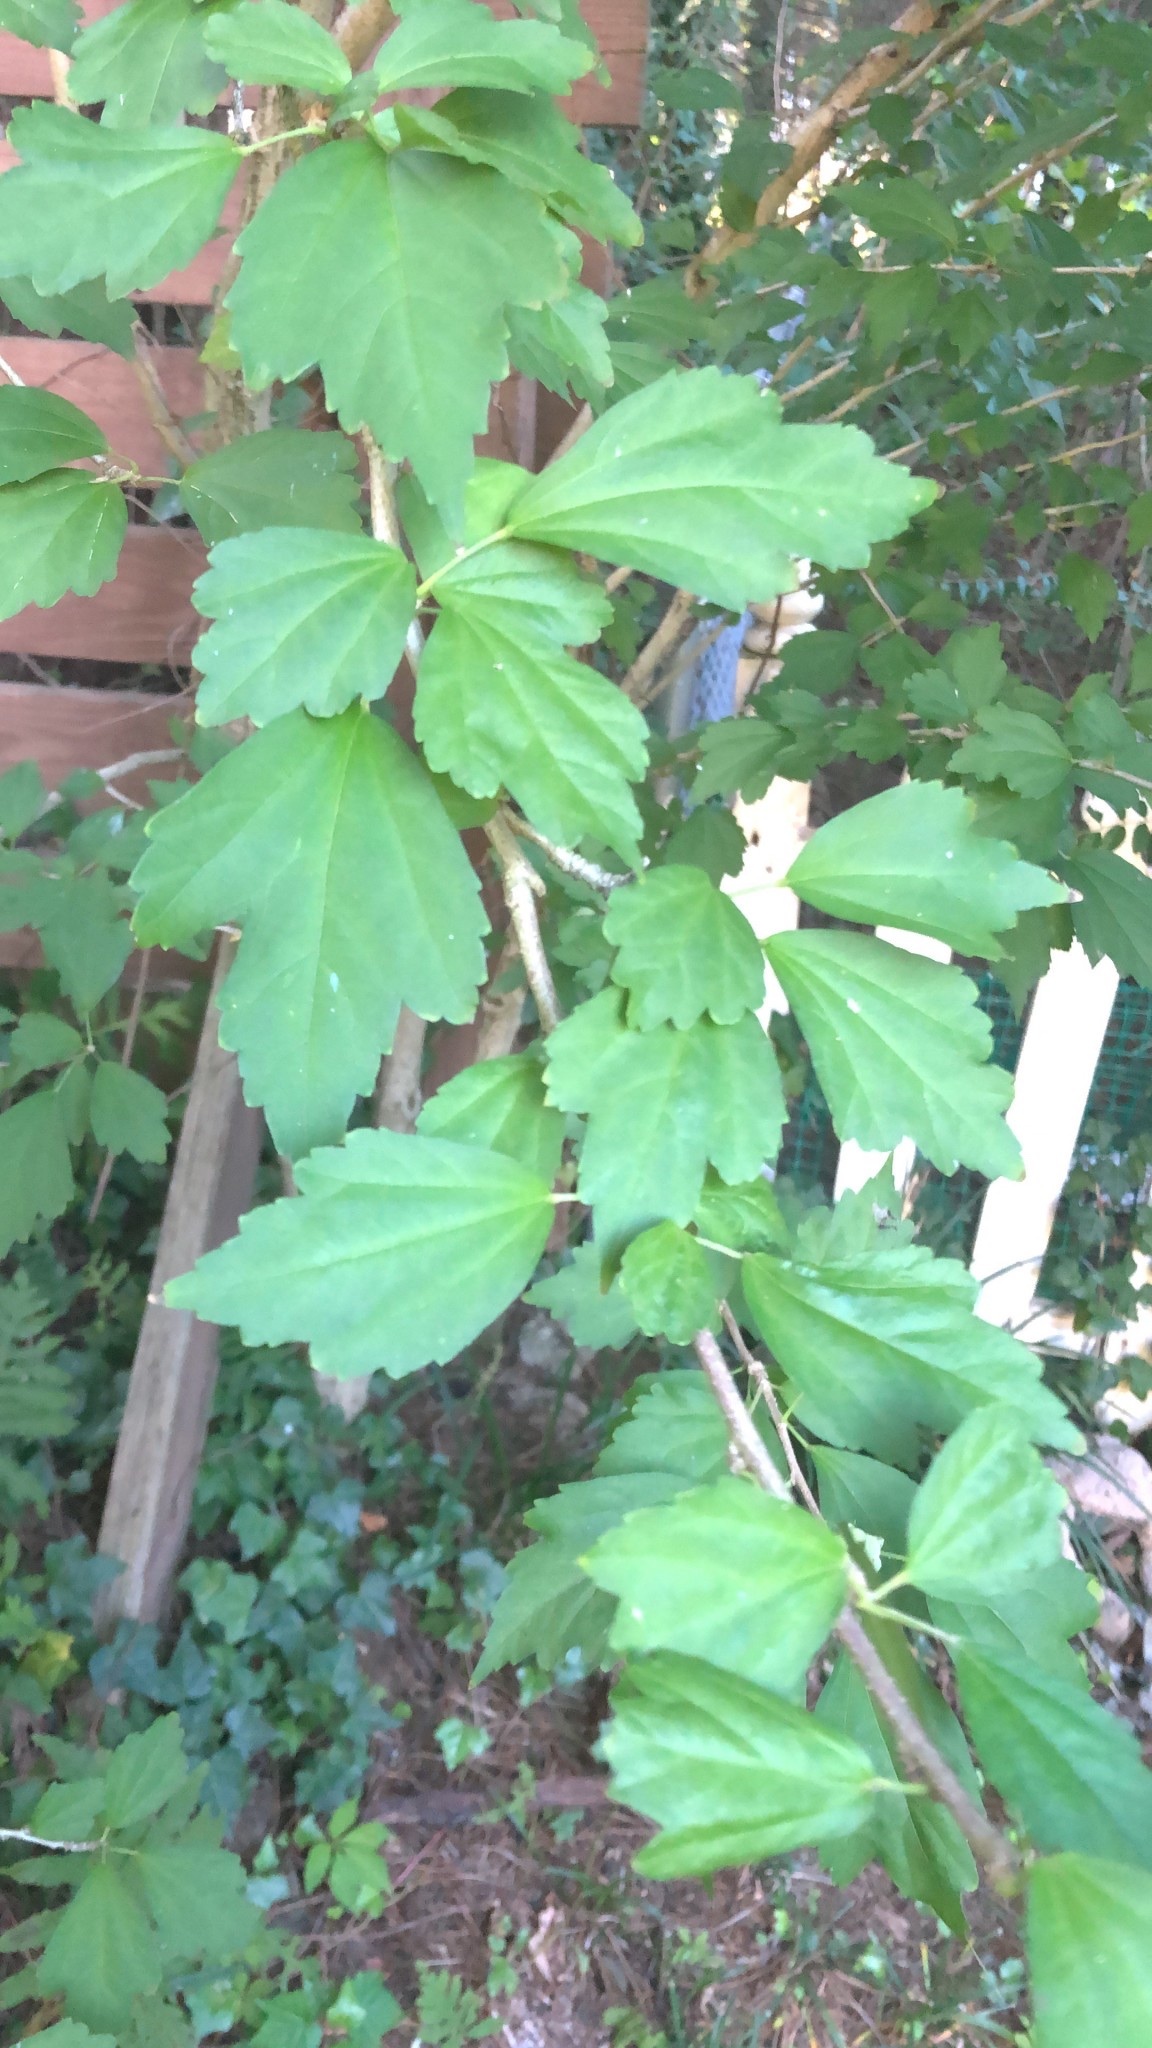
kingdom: Plantae
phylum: Tracheophyta
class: Magnoliopsida
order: Malvales
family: Malvaceae
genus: Hibiscus
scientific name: Hibiscus syriacus
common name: Syrian ketmia
